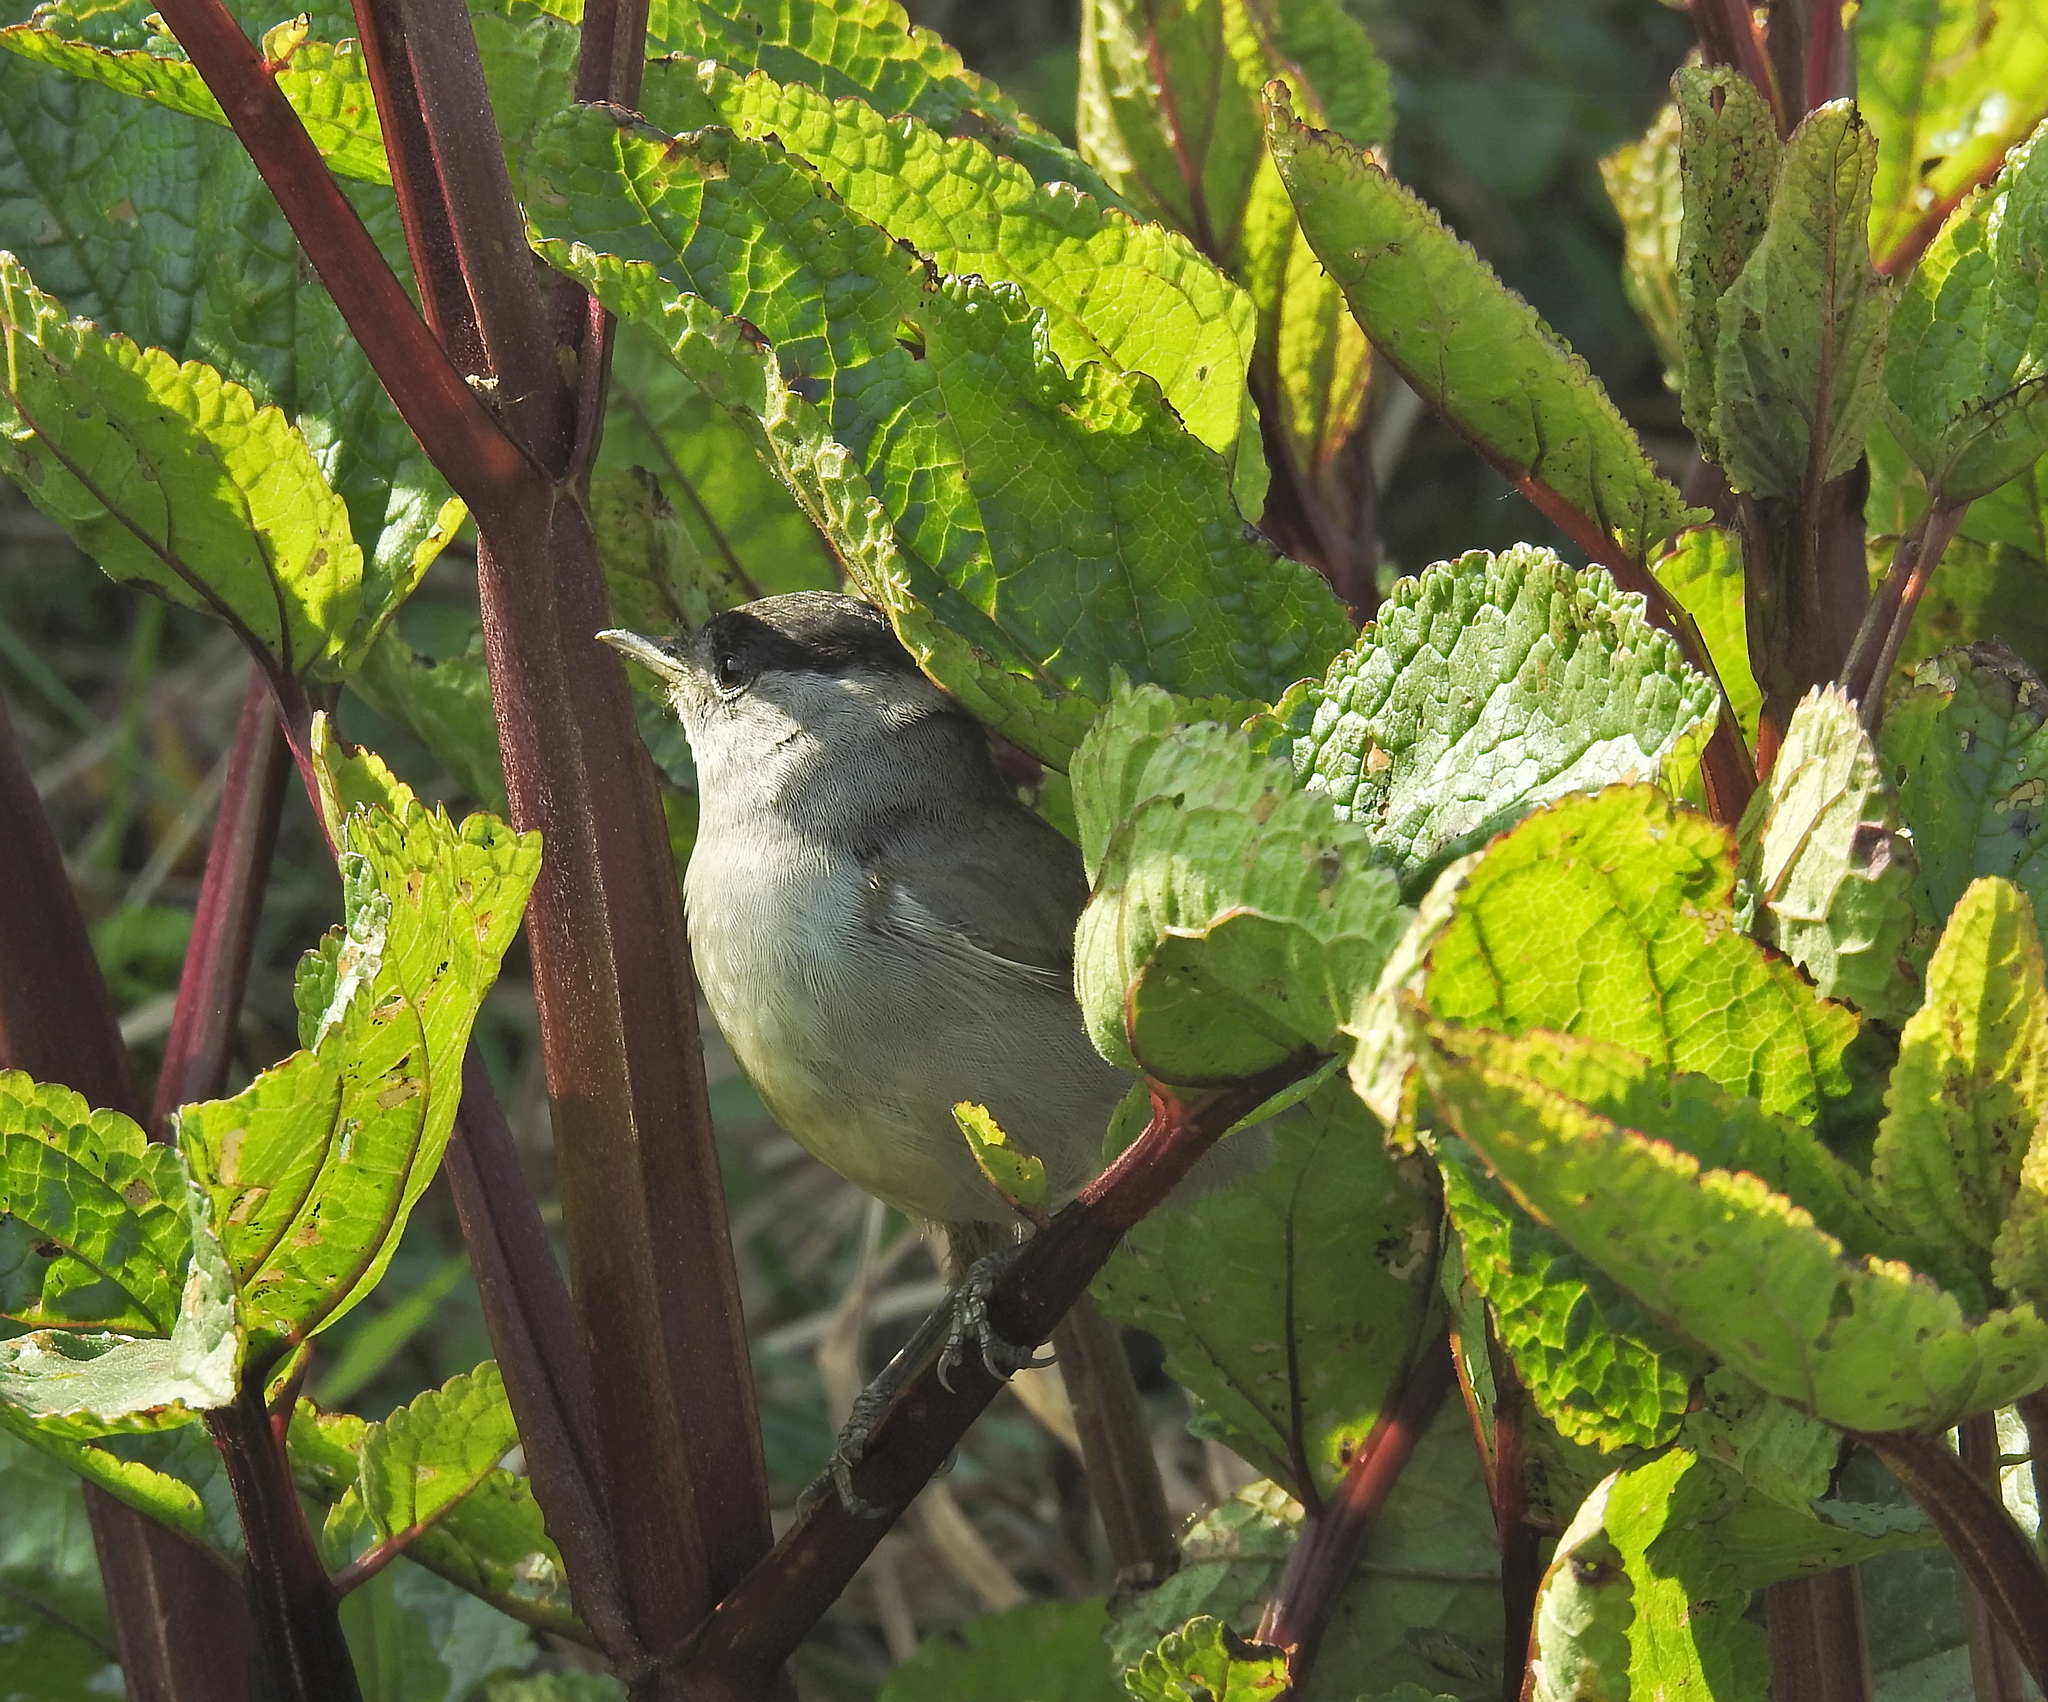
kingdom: Animalia
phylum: Chordata
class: Aves
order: Passeriformes
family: Sylviidae
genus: Sylvia
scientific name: Sylvia atricapilla
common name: Eurasian blackcap
